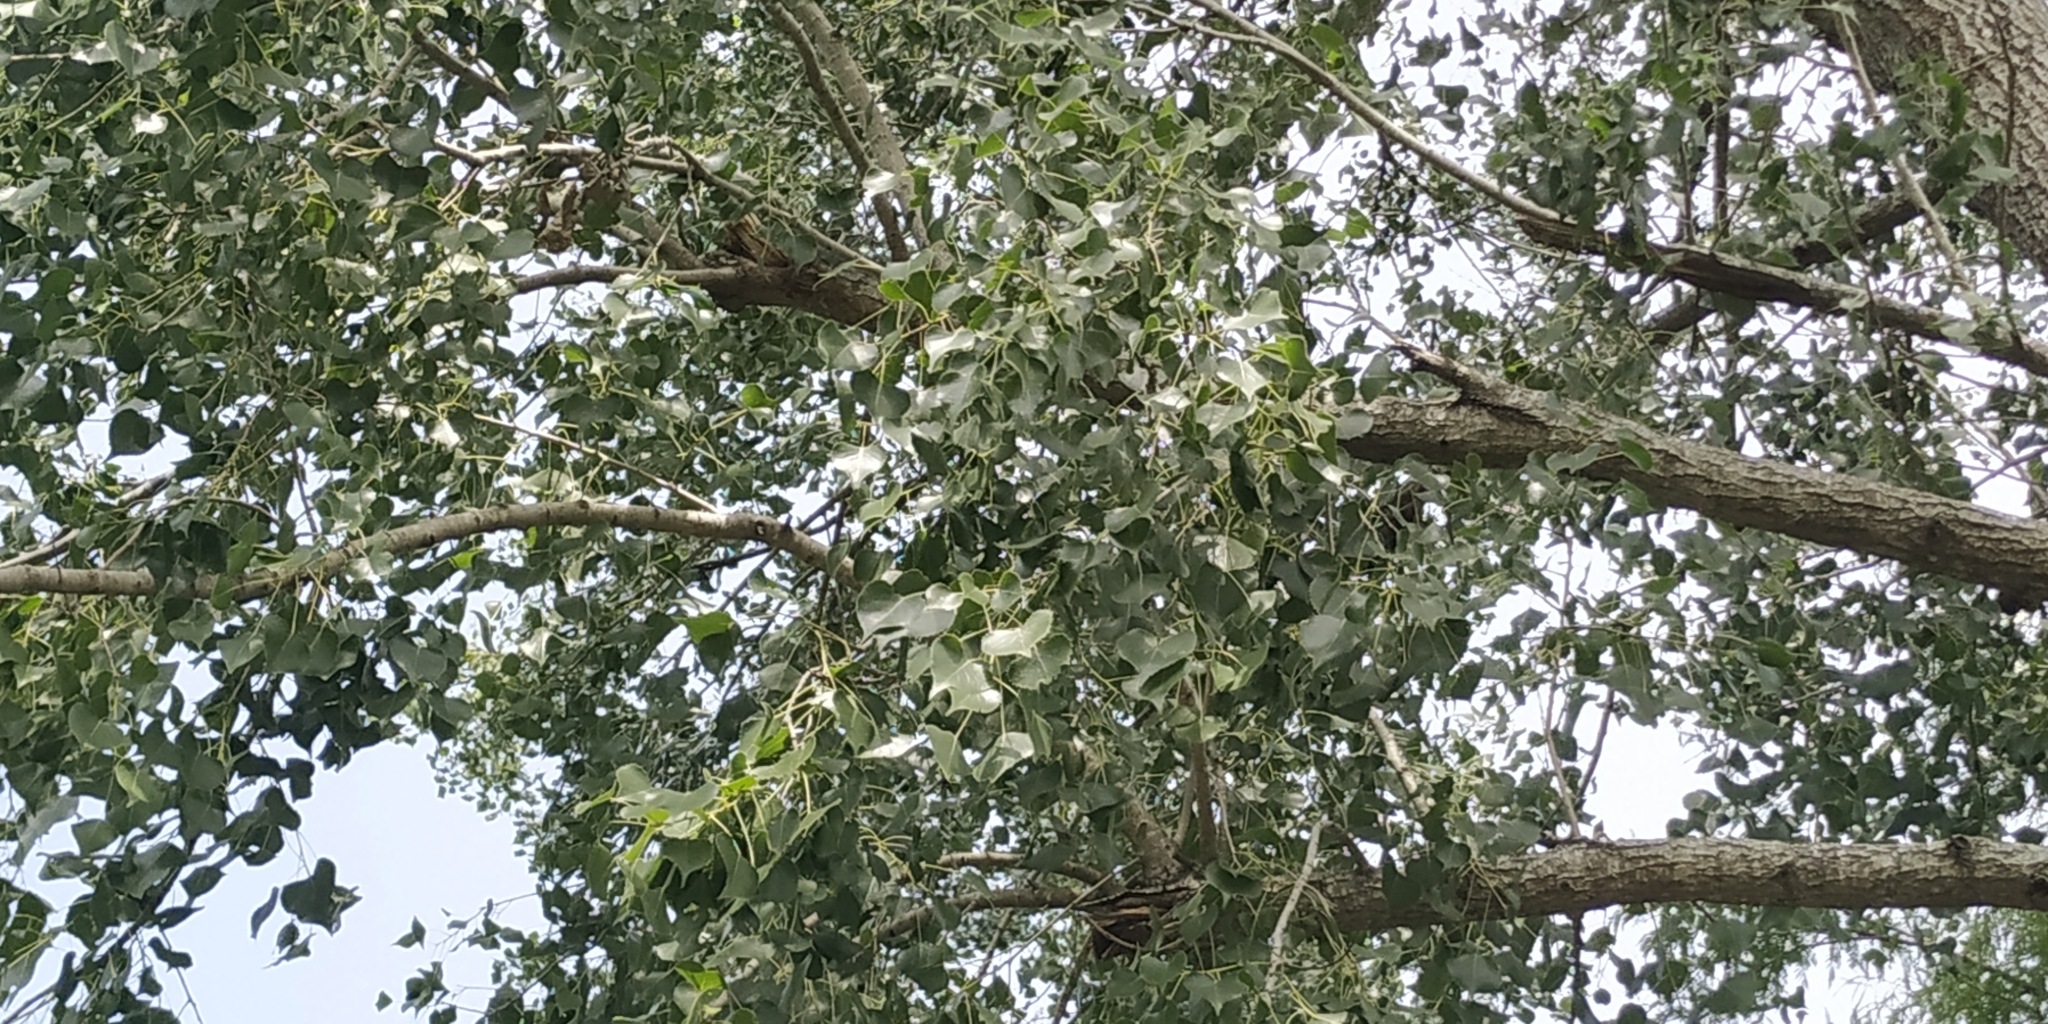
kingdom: Plantae
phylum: Tracheophyta
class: Magnoliopsida
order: Malpighiales
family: Salicaceae
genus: Populus
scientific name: Populus mexicana
